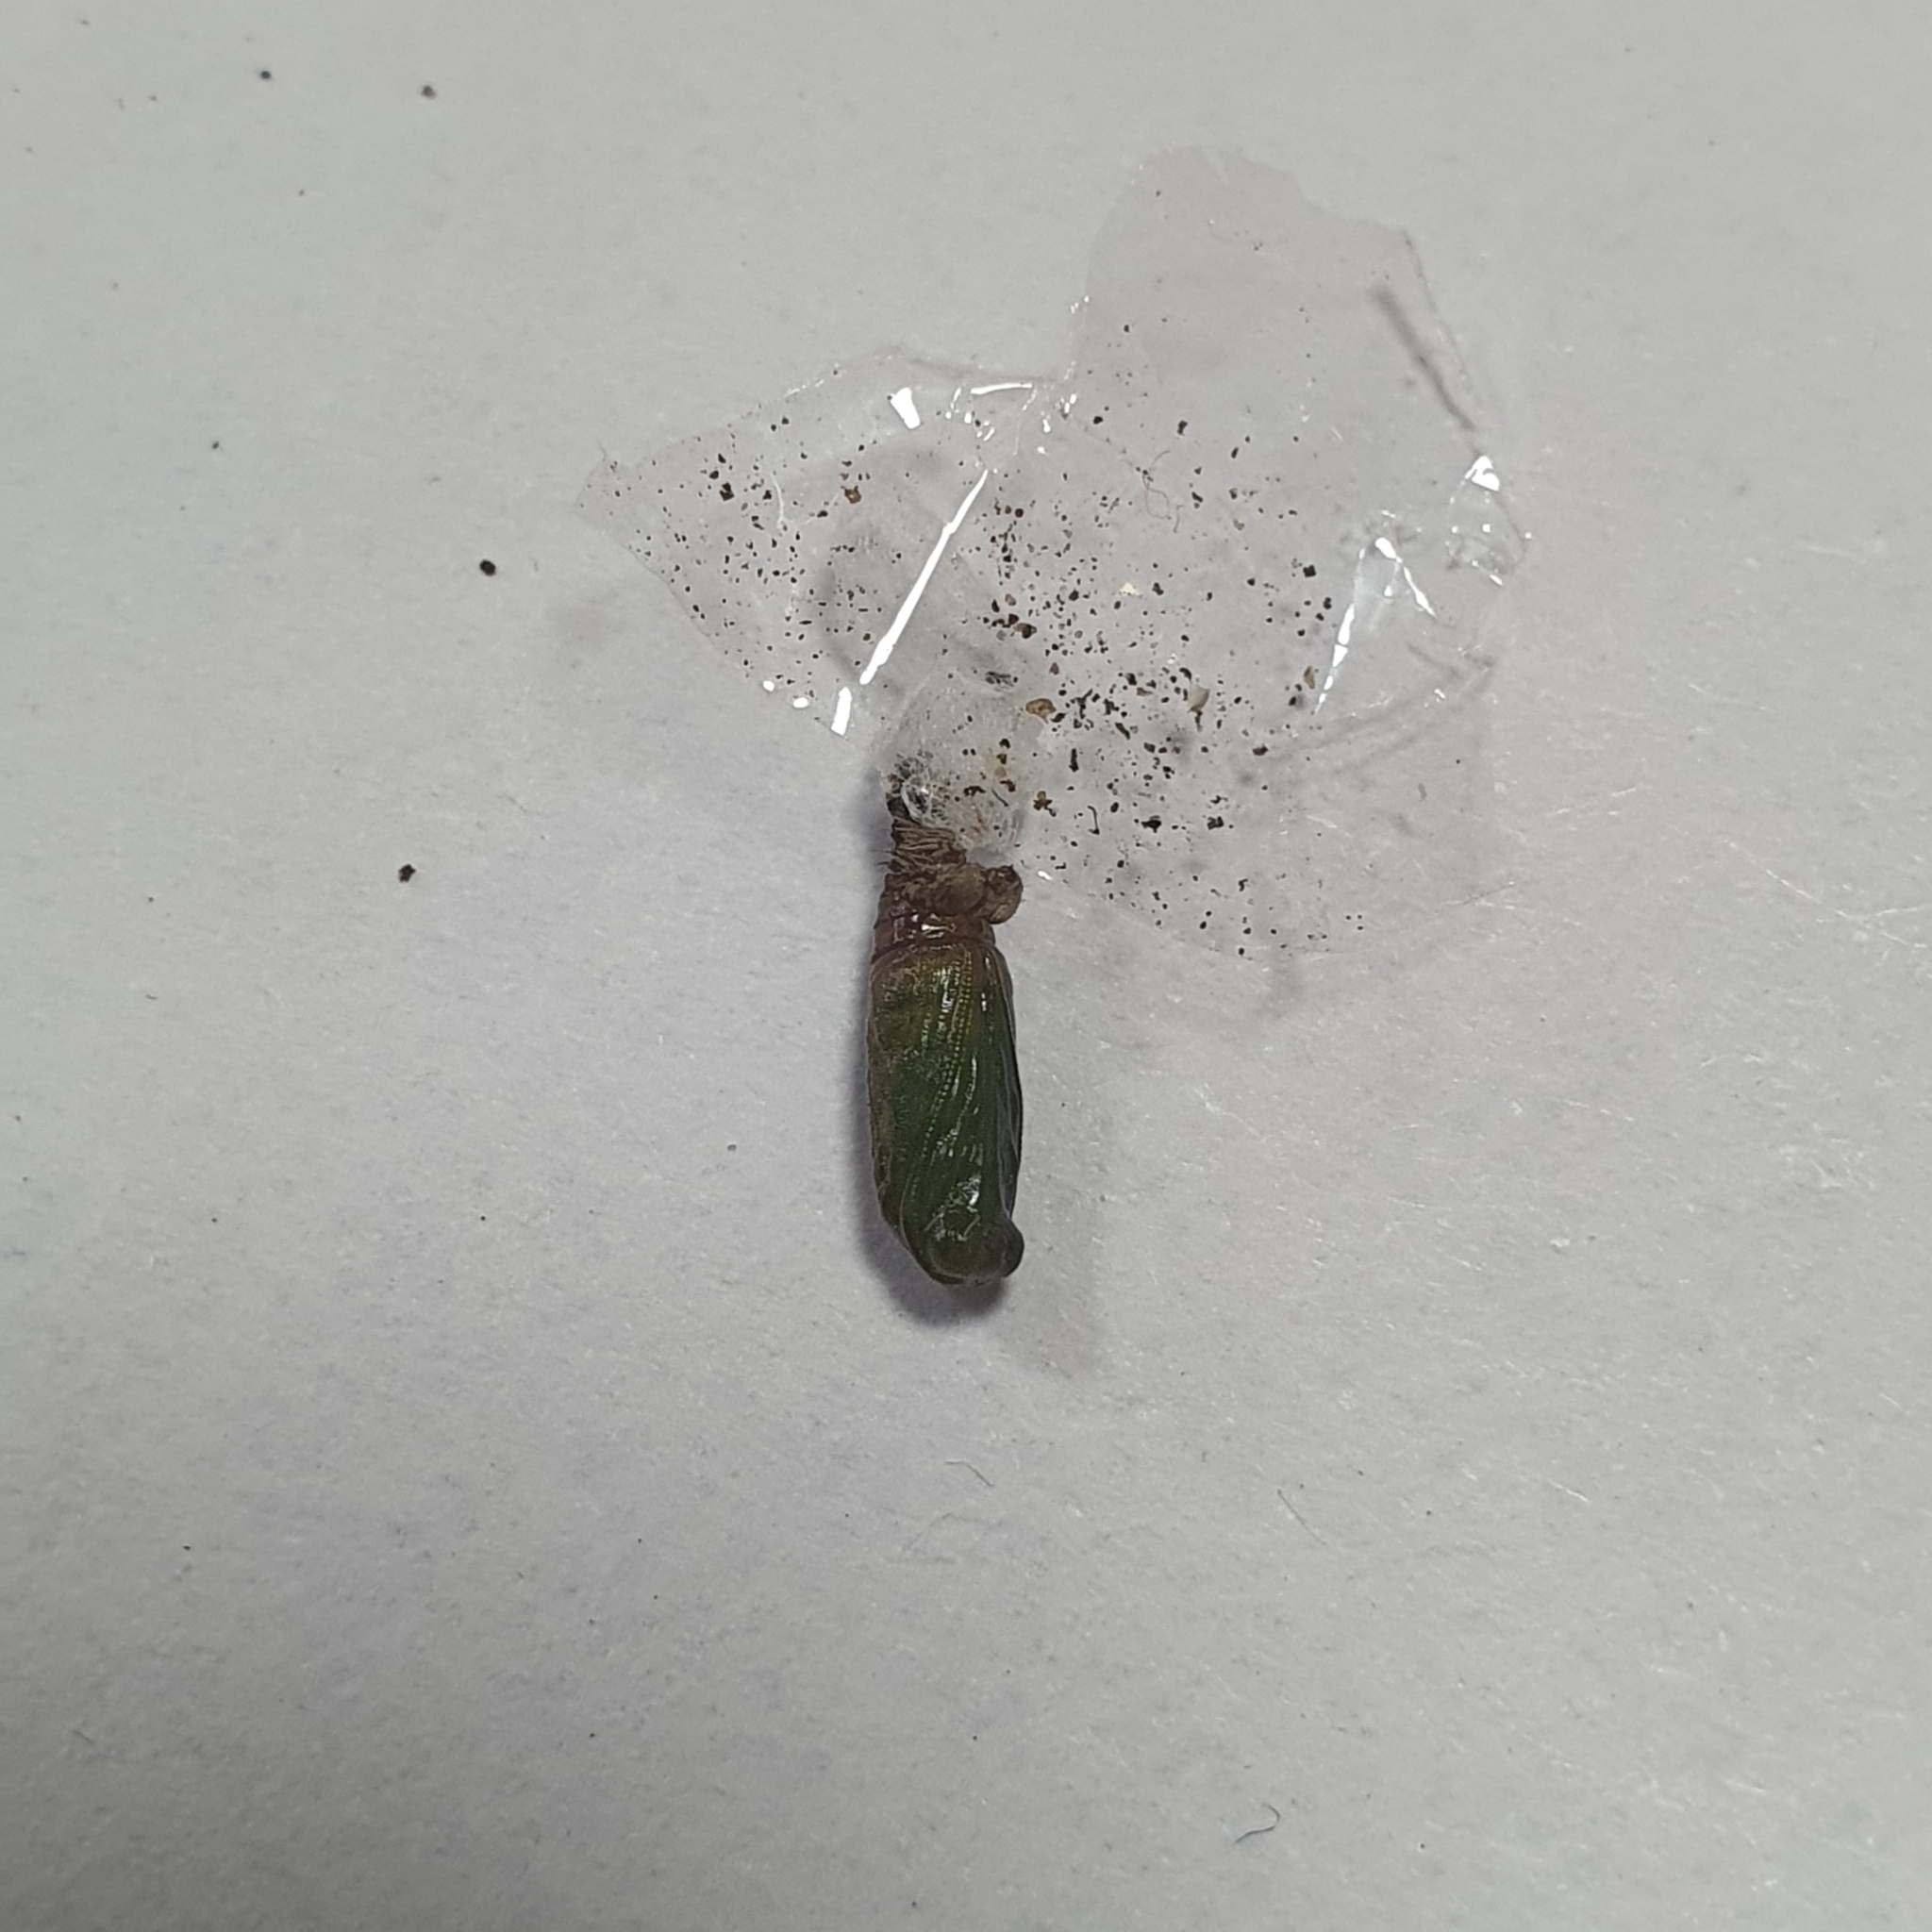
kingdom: Animalia
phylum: Arthropoda
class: Insecta
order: Lepidoptera
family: Geometridae
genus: Microdes
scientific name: Microdes squamulata
